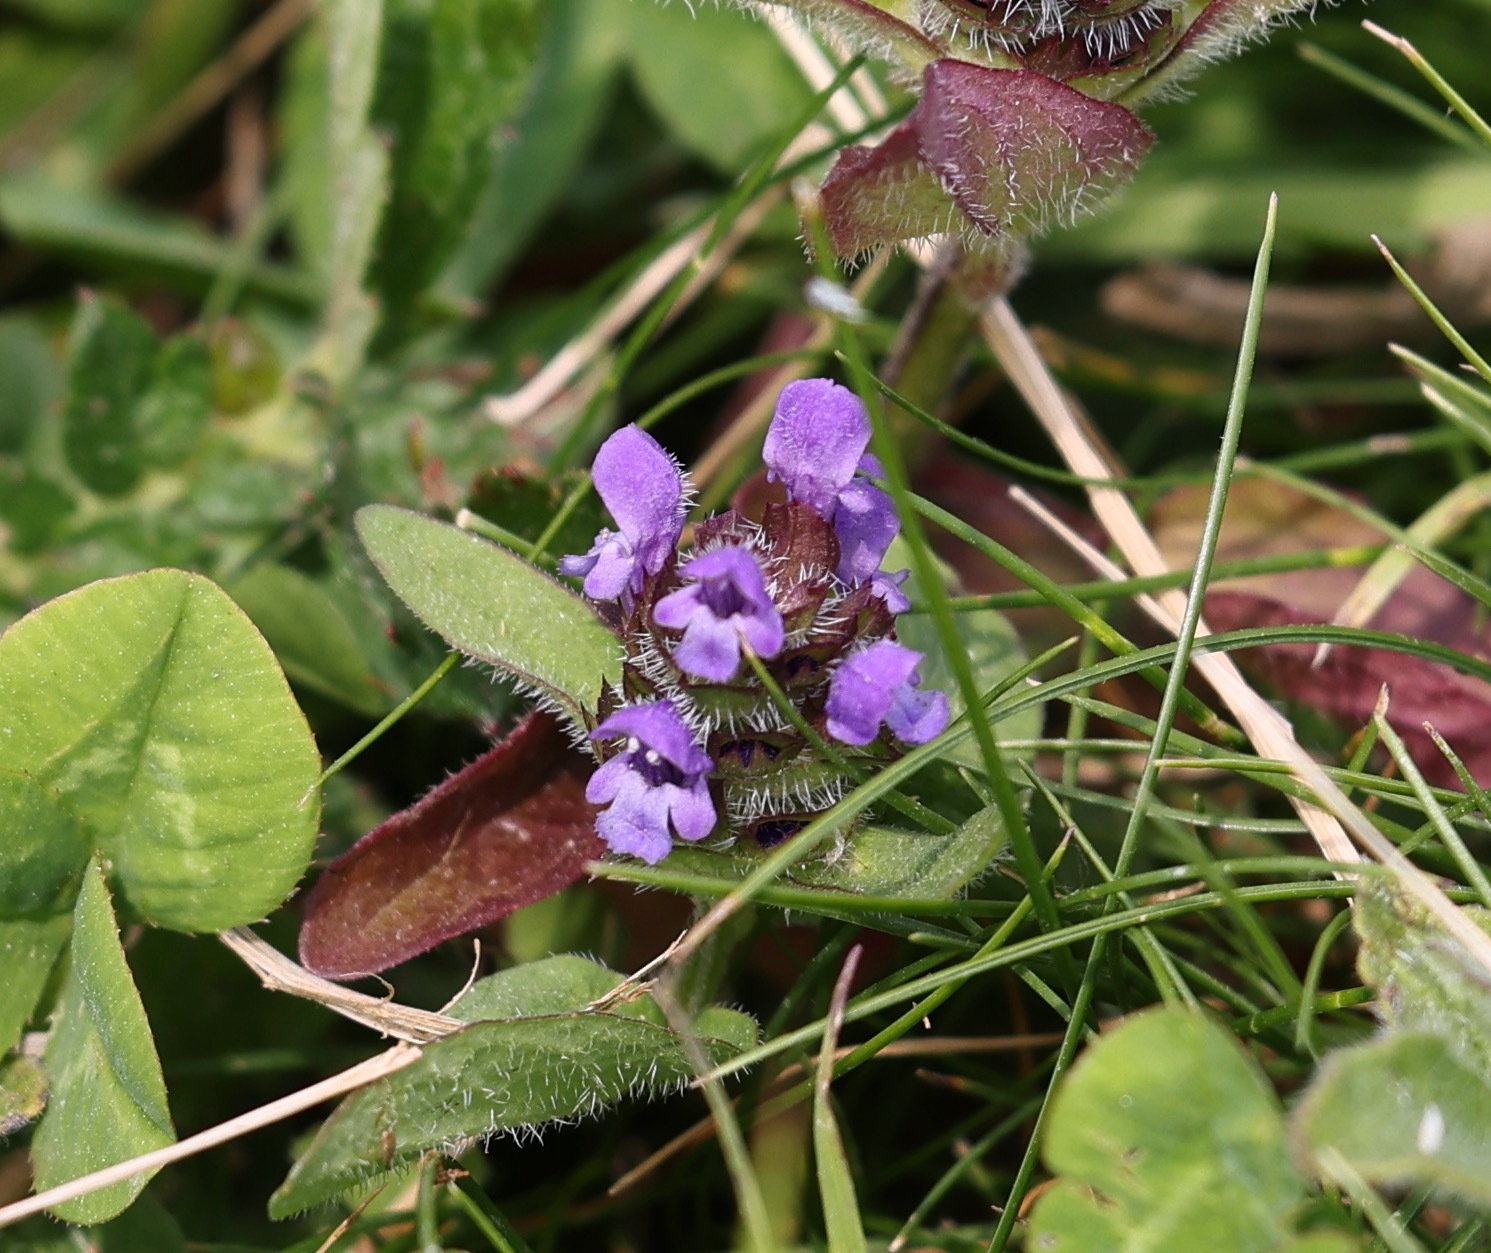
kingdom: Plantae
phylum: Tracheophyta
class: Magnoliopsida
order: Lamiales
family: Lamiaceae
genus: Prunella
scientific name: Prunella vulgaris
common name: Heal-all
